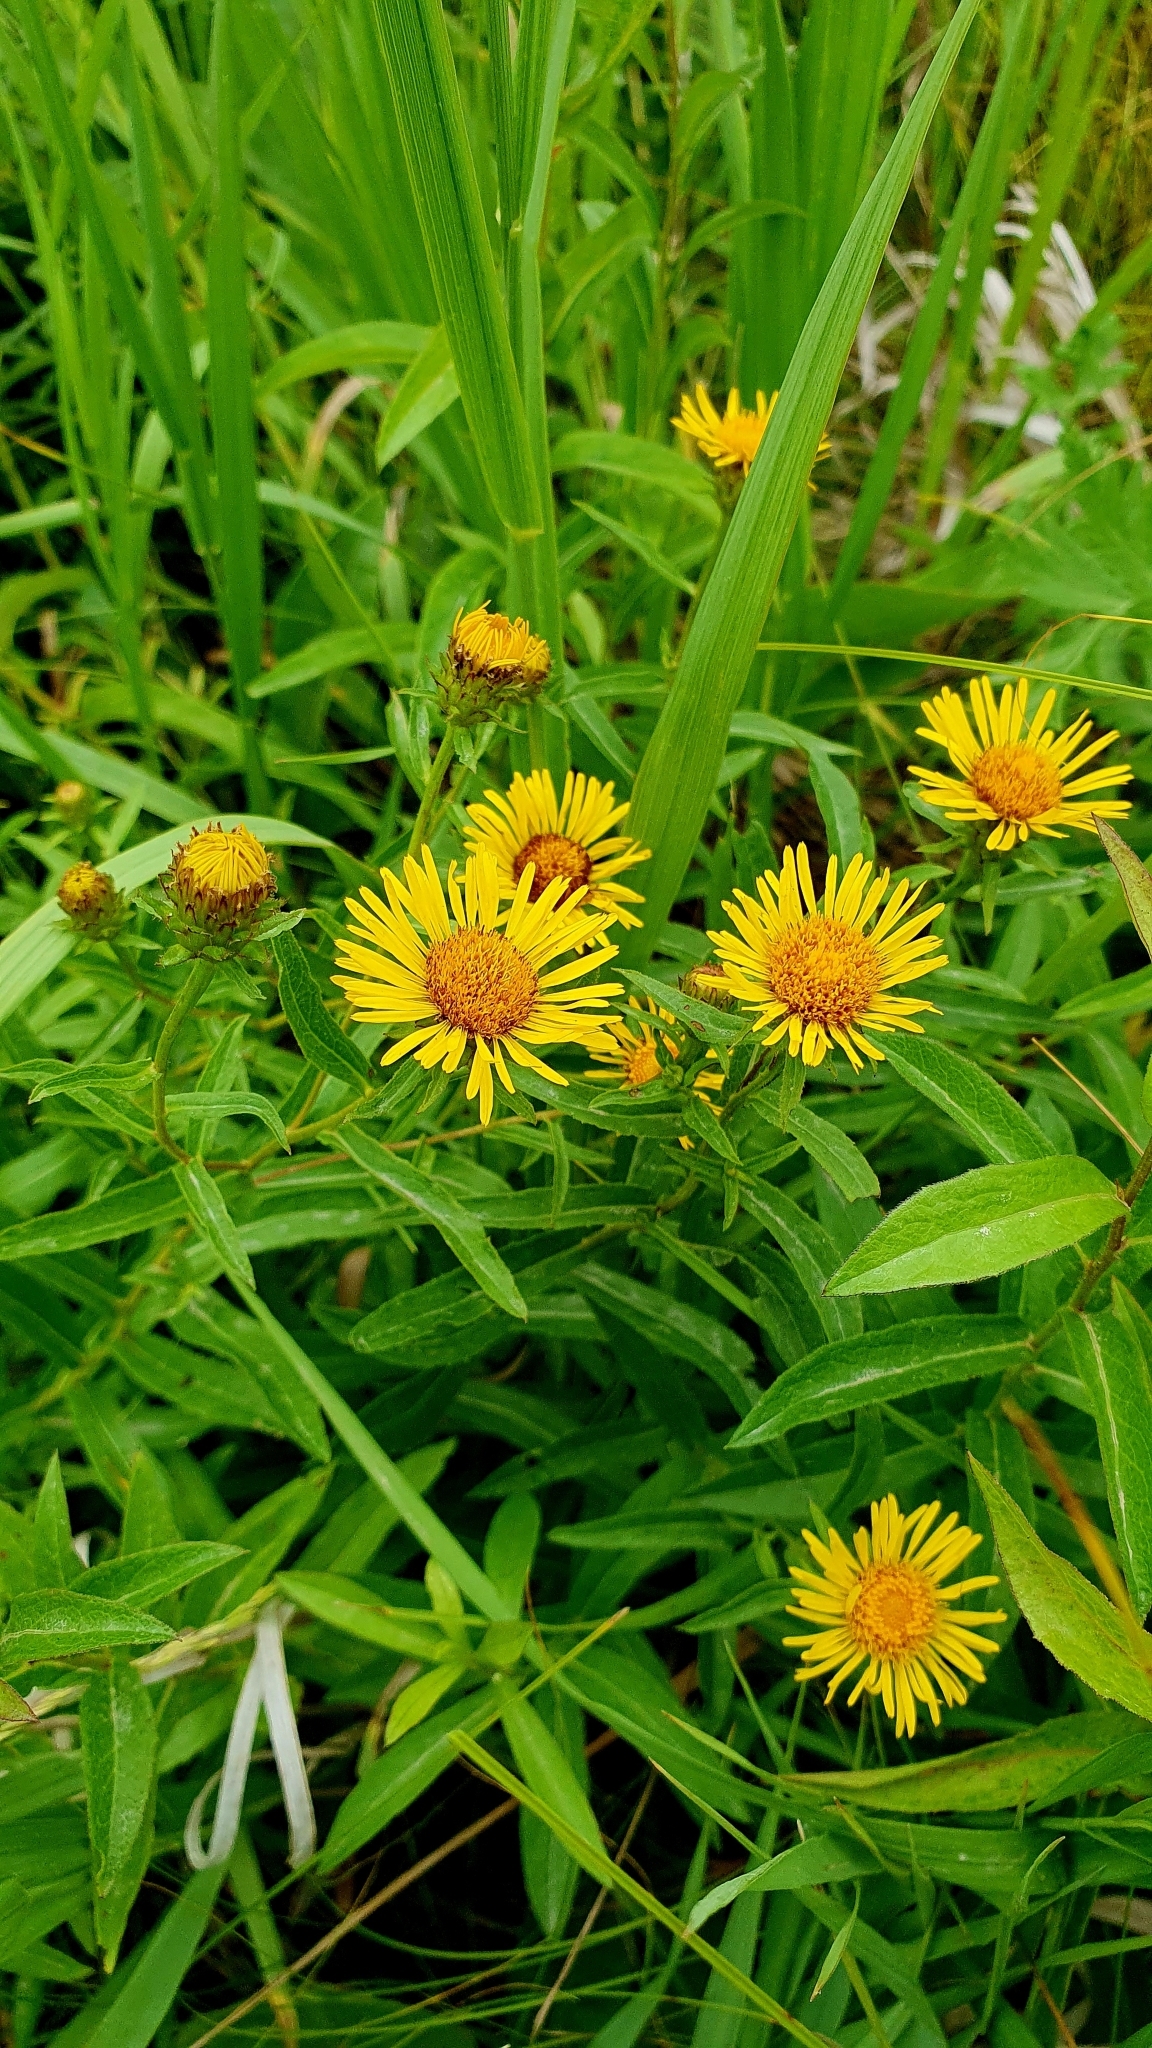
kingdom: Plantae
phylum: Tracheophyta
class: Magnoliopsida
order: Asterales
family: Asteraceae
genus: Pentanema
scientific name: Pentanema salicinum
